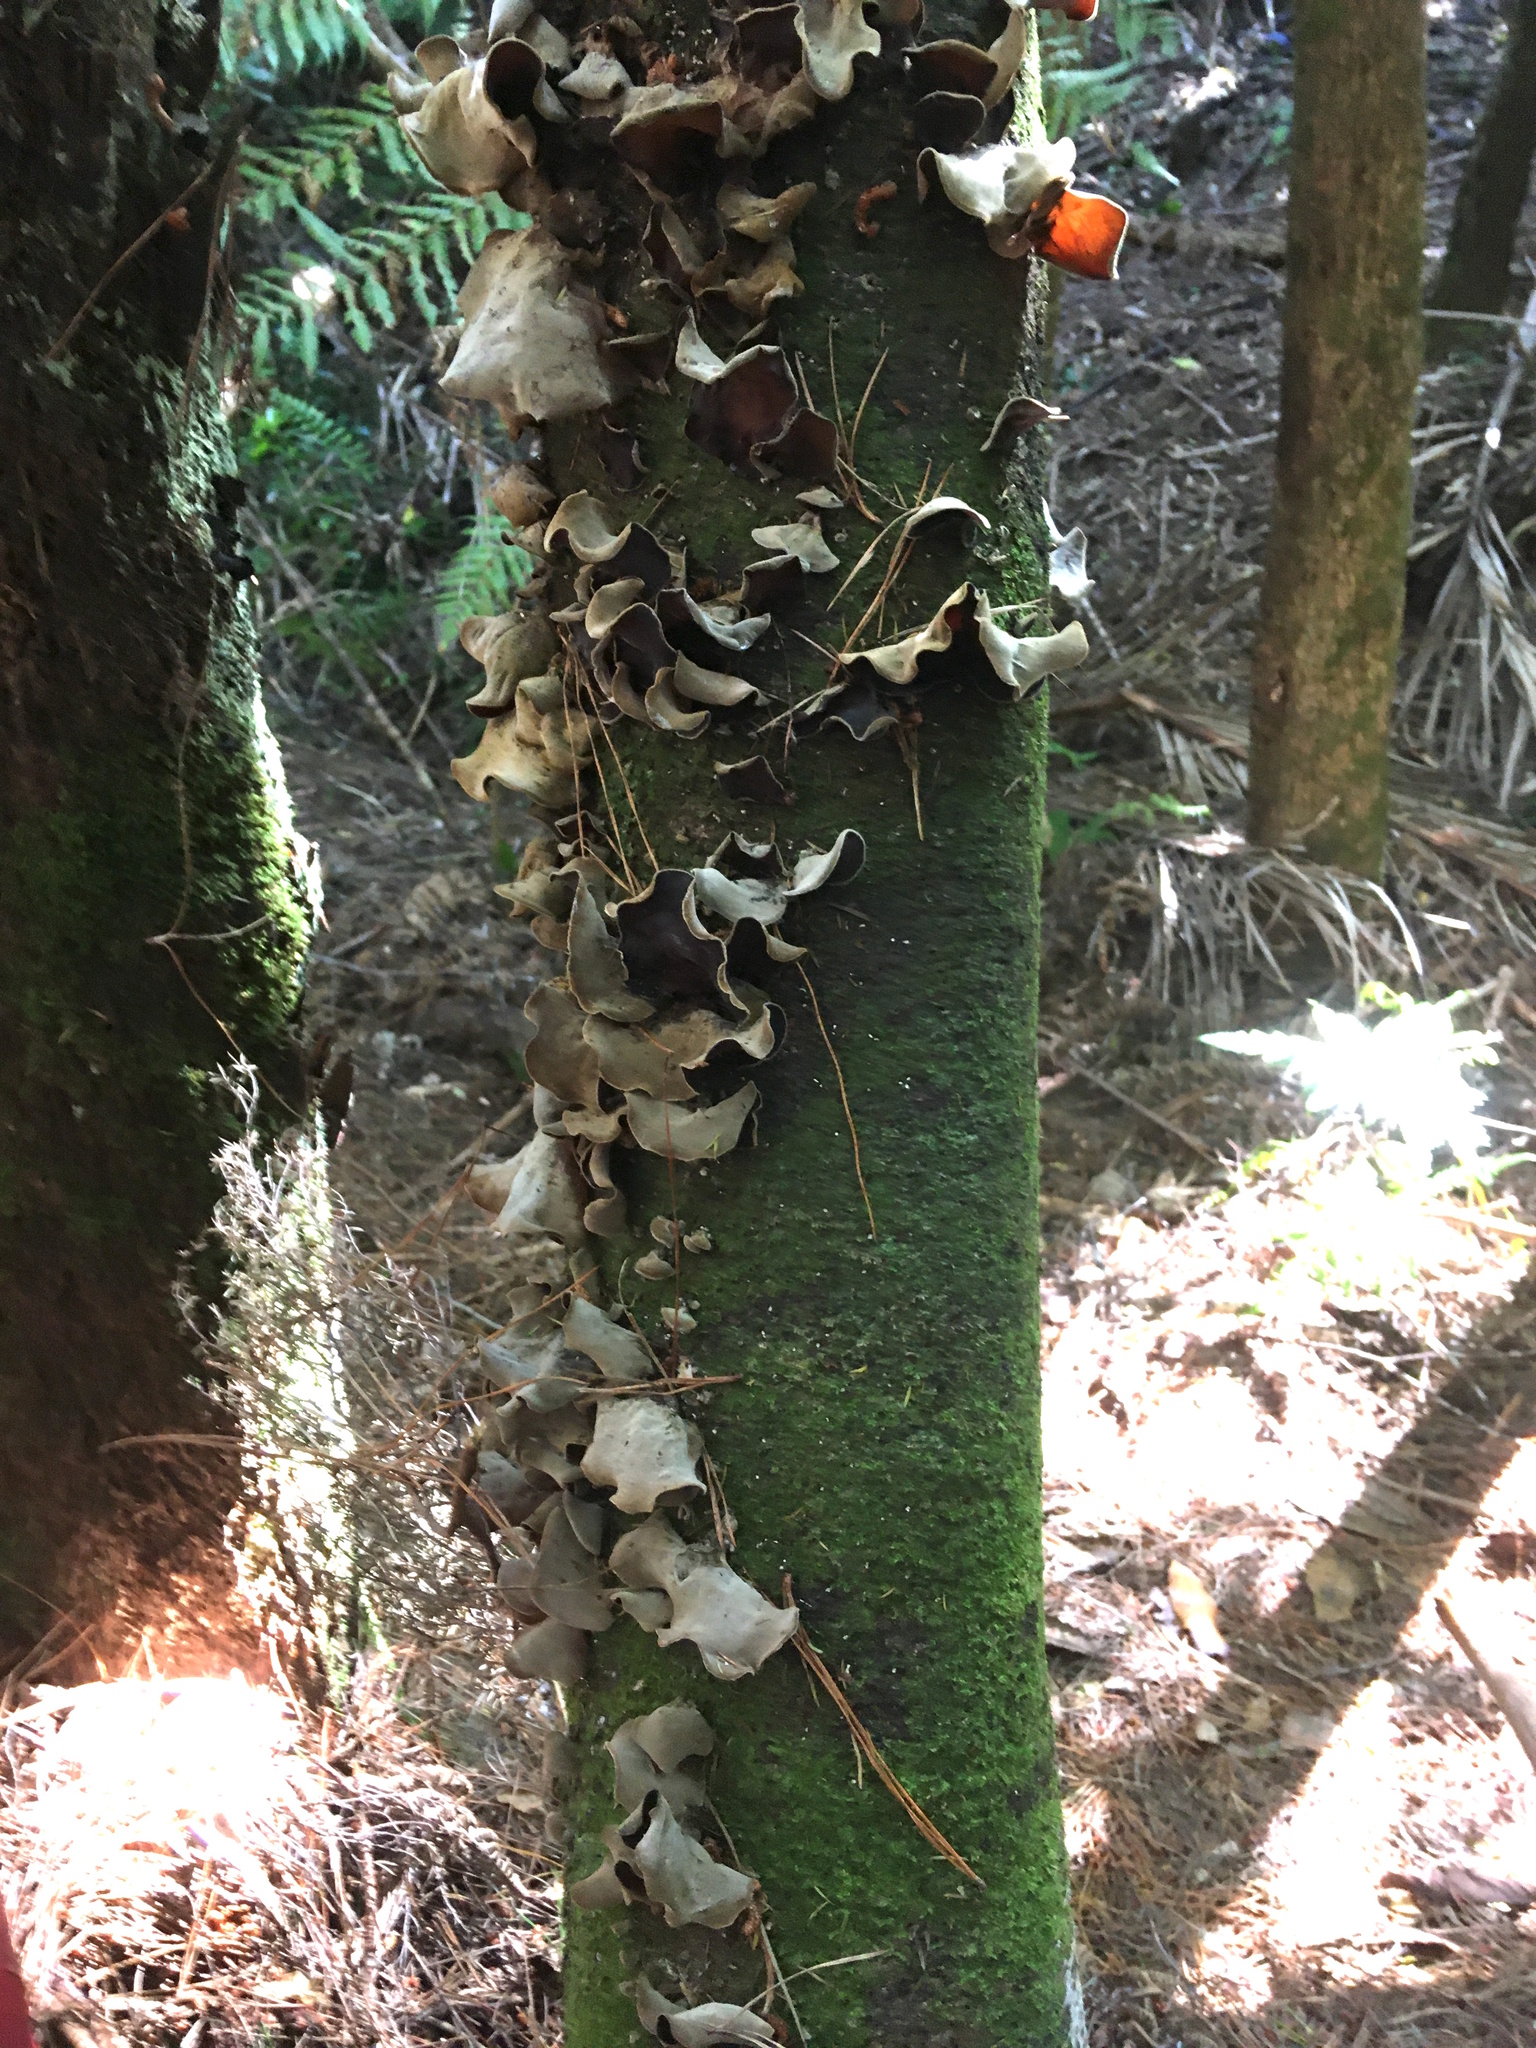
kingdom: Fungi
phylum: Basidiomycota
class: Agaricomycetes
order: Auriculariales
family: Auriculariaceae
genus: Auricularia
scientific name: Auricularia cornea
